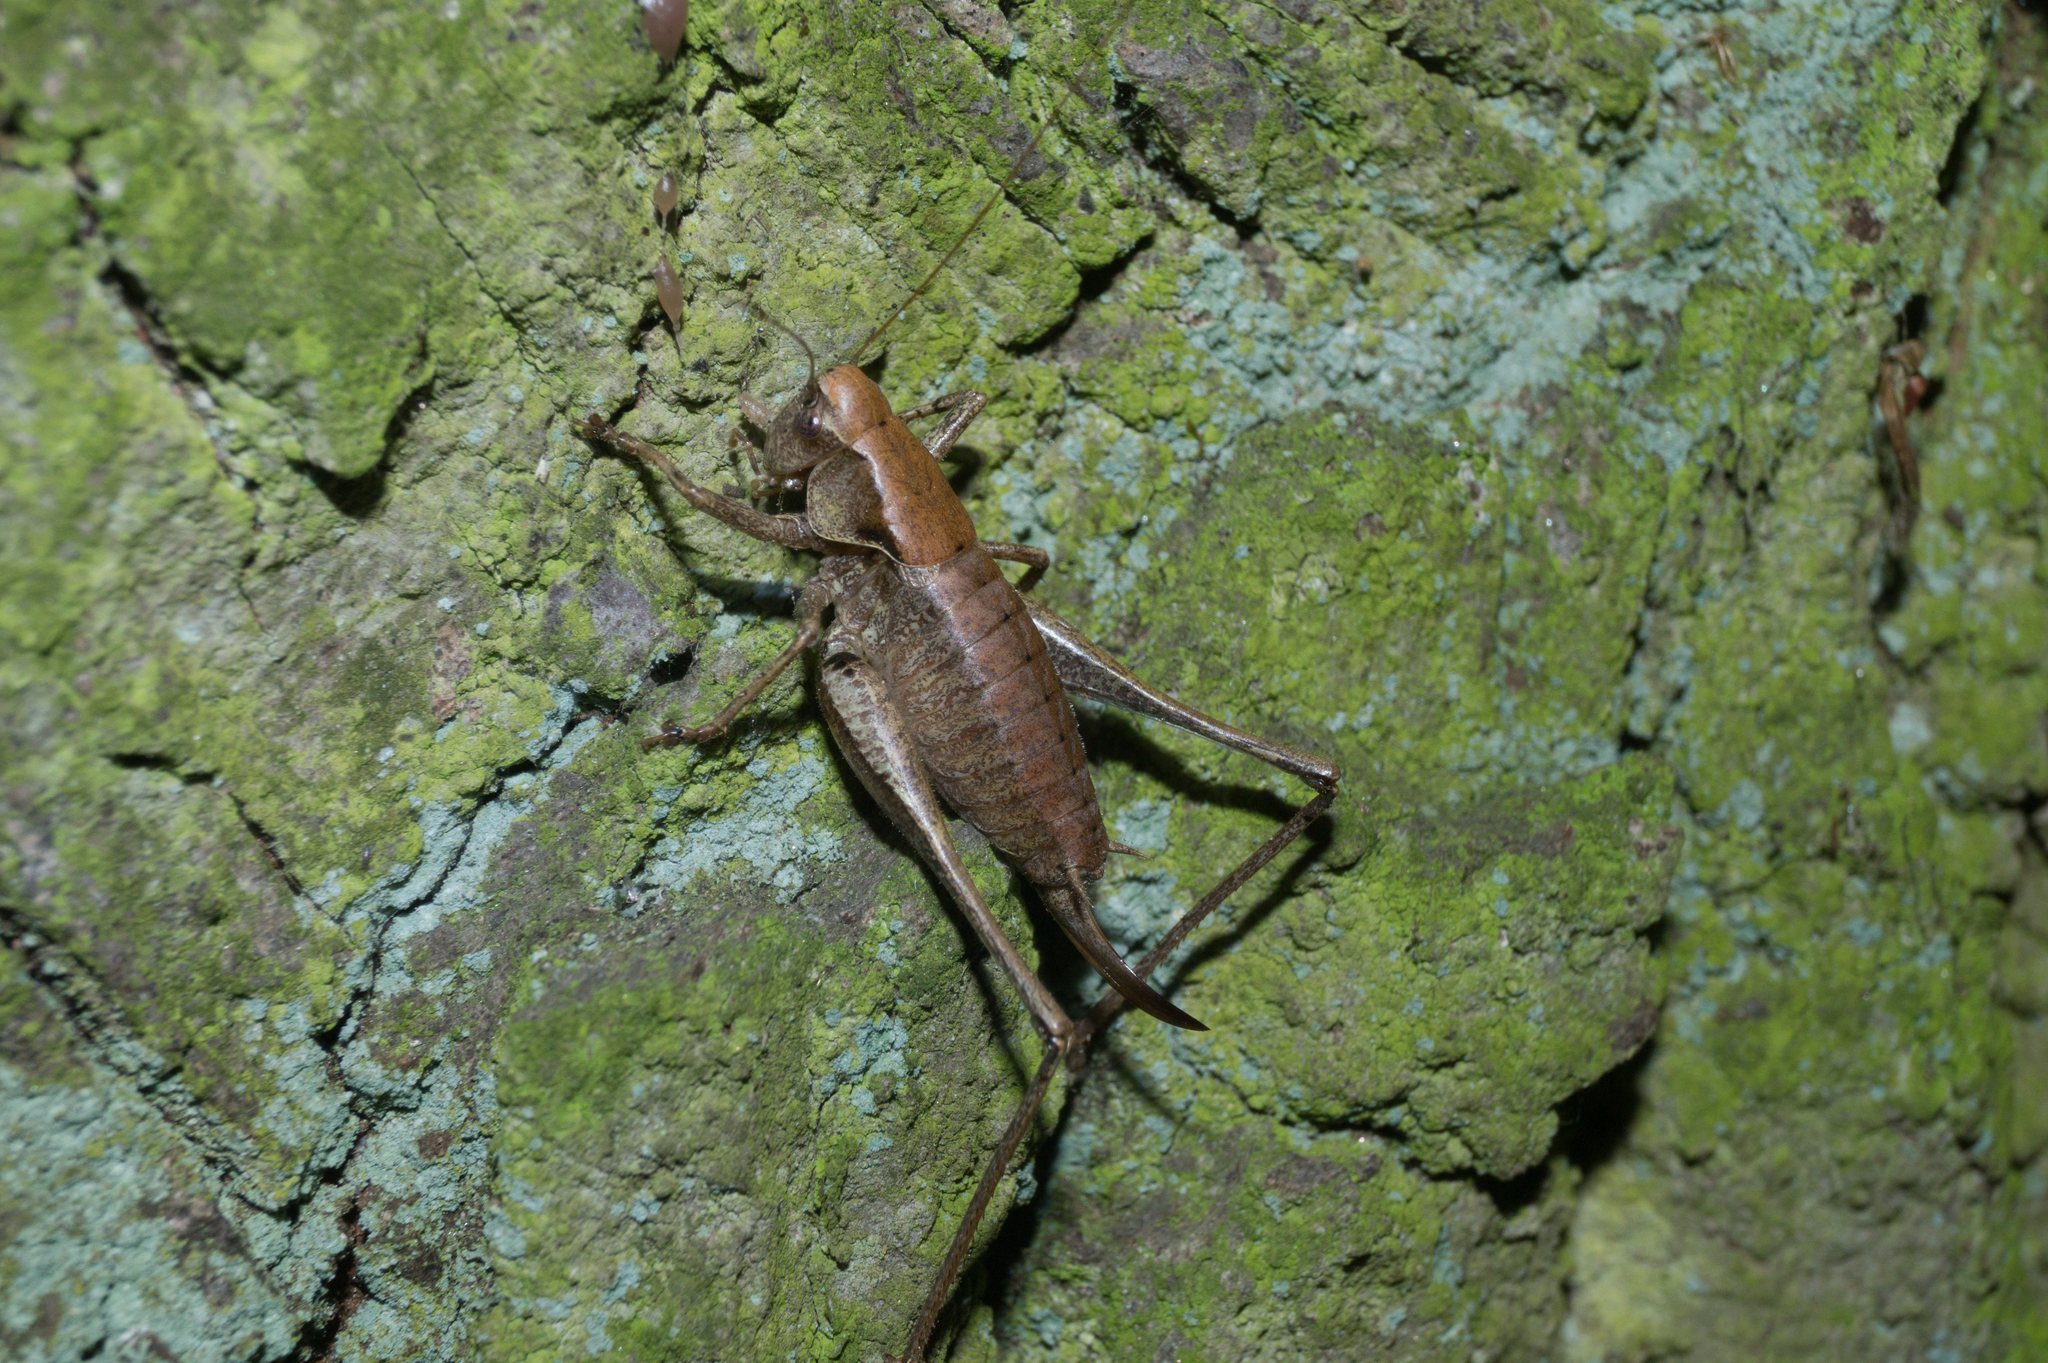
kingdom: Animalia
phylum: Arthropoda
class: Insecta
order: Orthoptera
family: Tettigoniidae
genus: Pholidoptera
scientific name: Pholidoptera griseoaptera
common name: Dark bush-cricket
